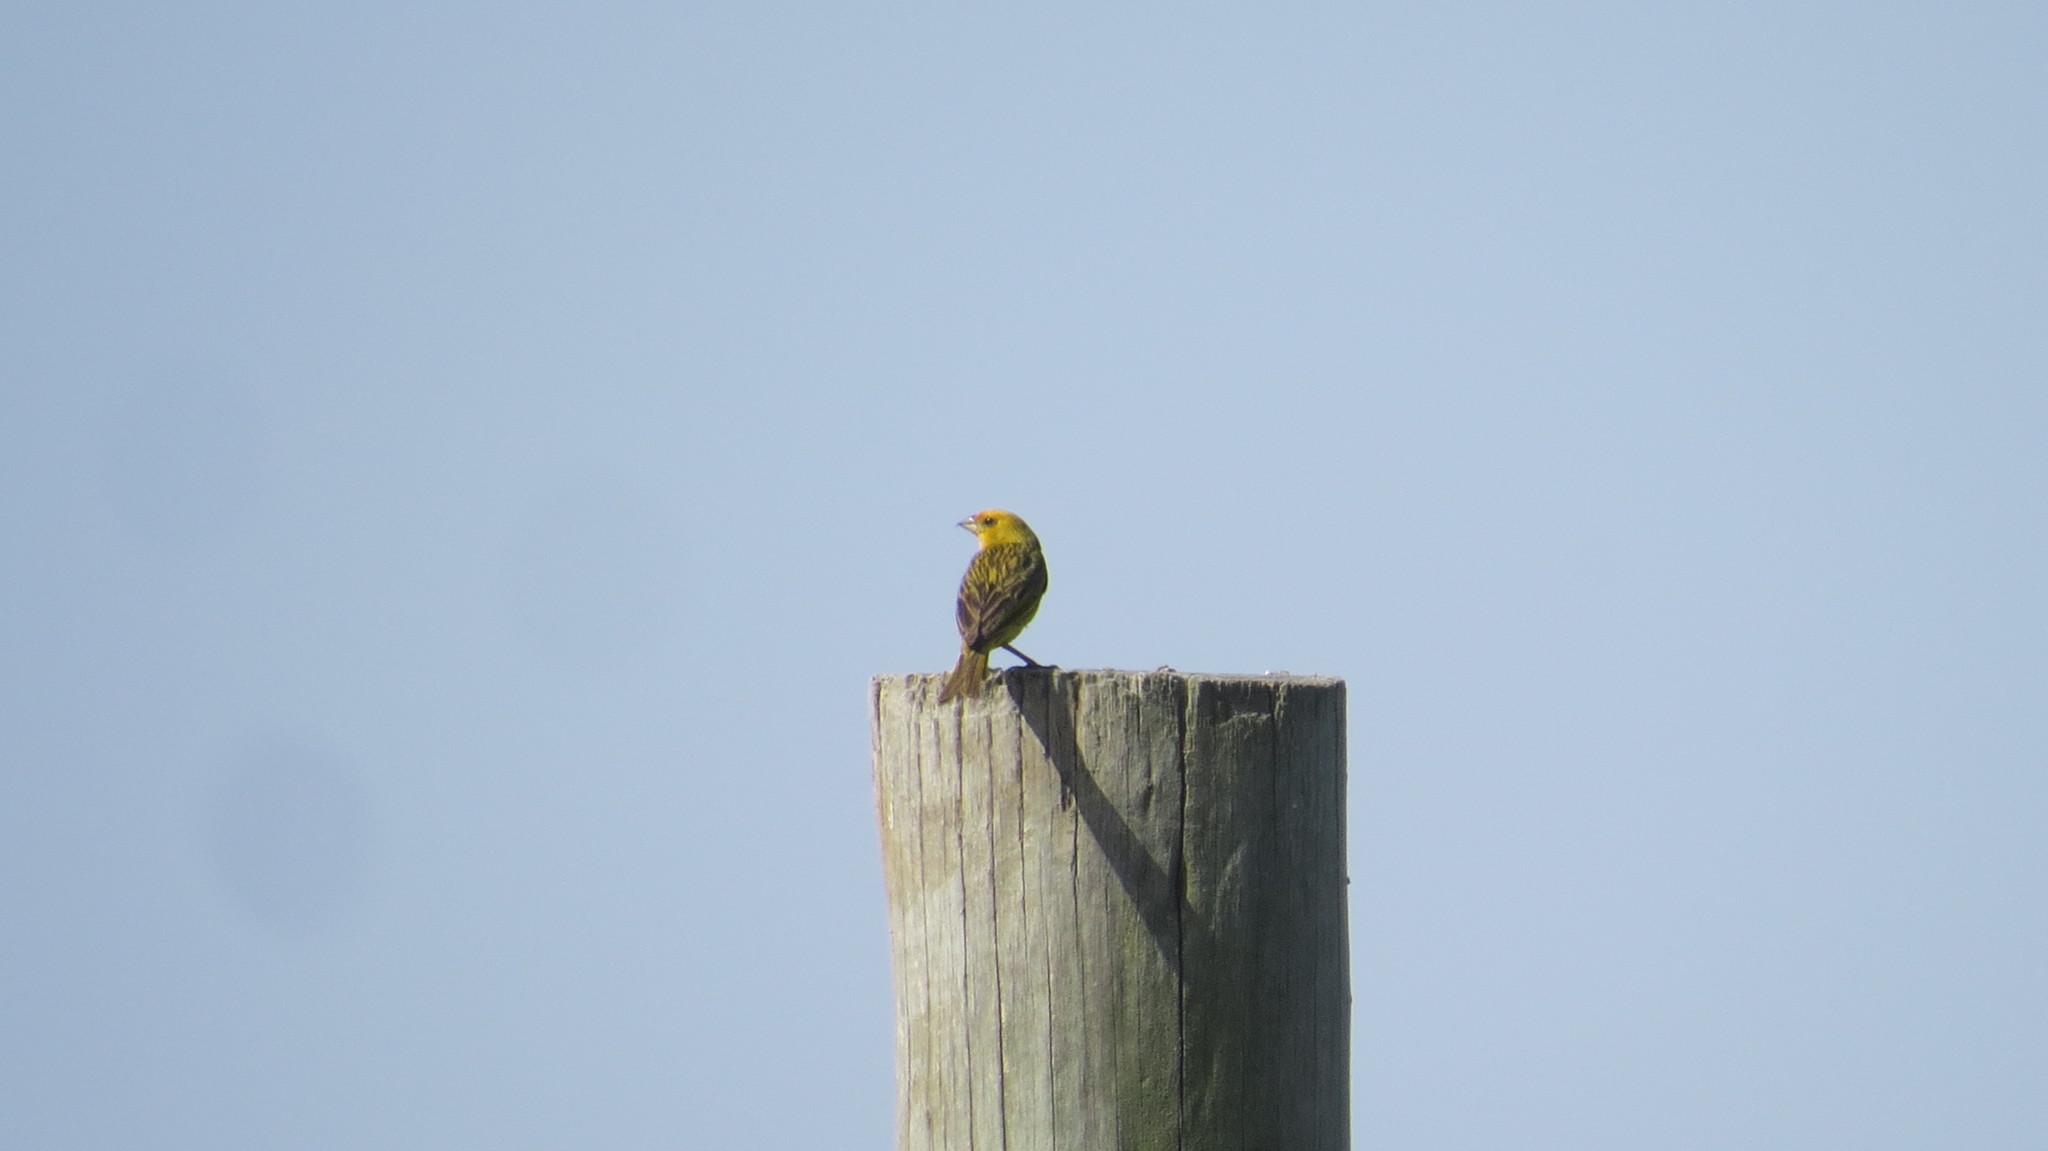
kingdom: Animalia
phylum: Chordata
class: Aves
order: Passeriformes
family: Thraupidae
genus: Sicalis
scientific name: Sicalis flaveola
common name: Saffron finch
